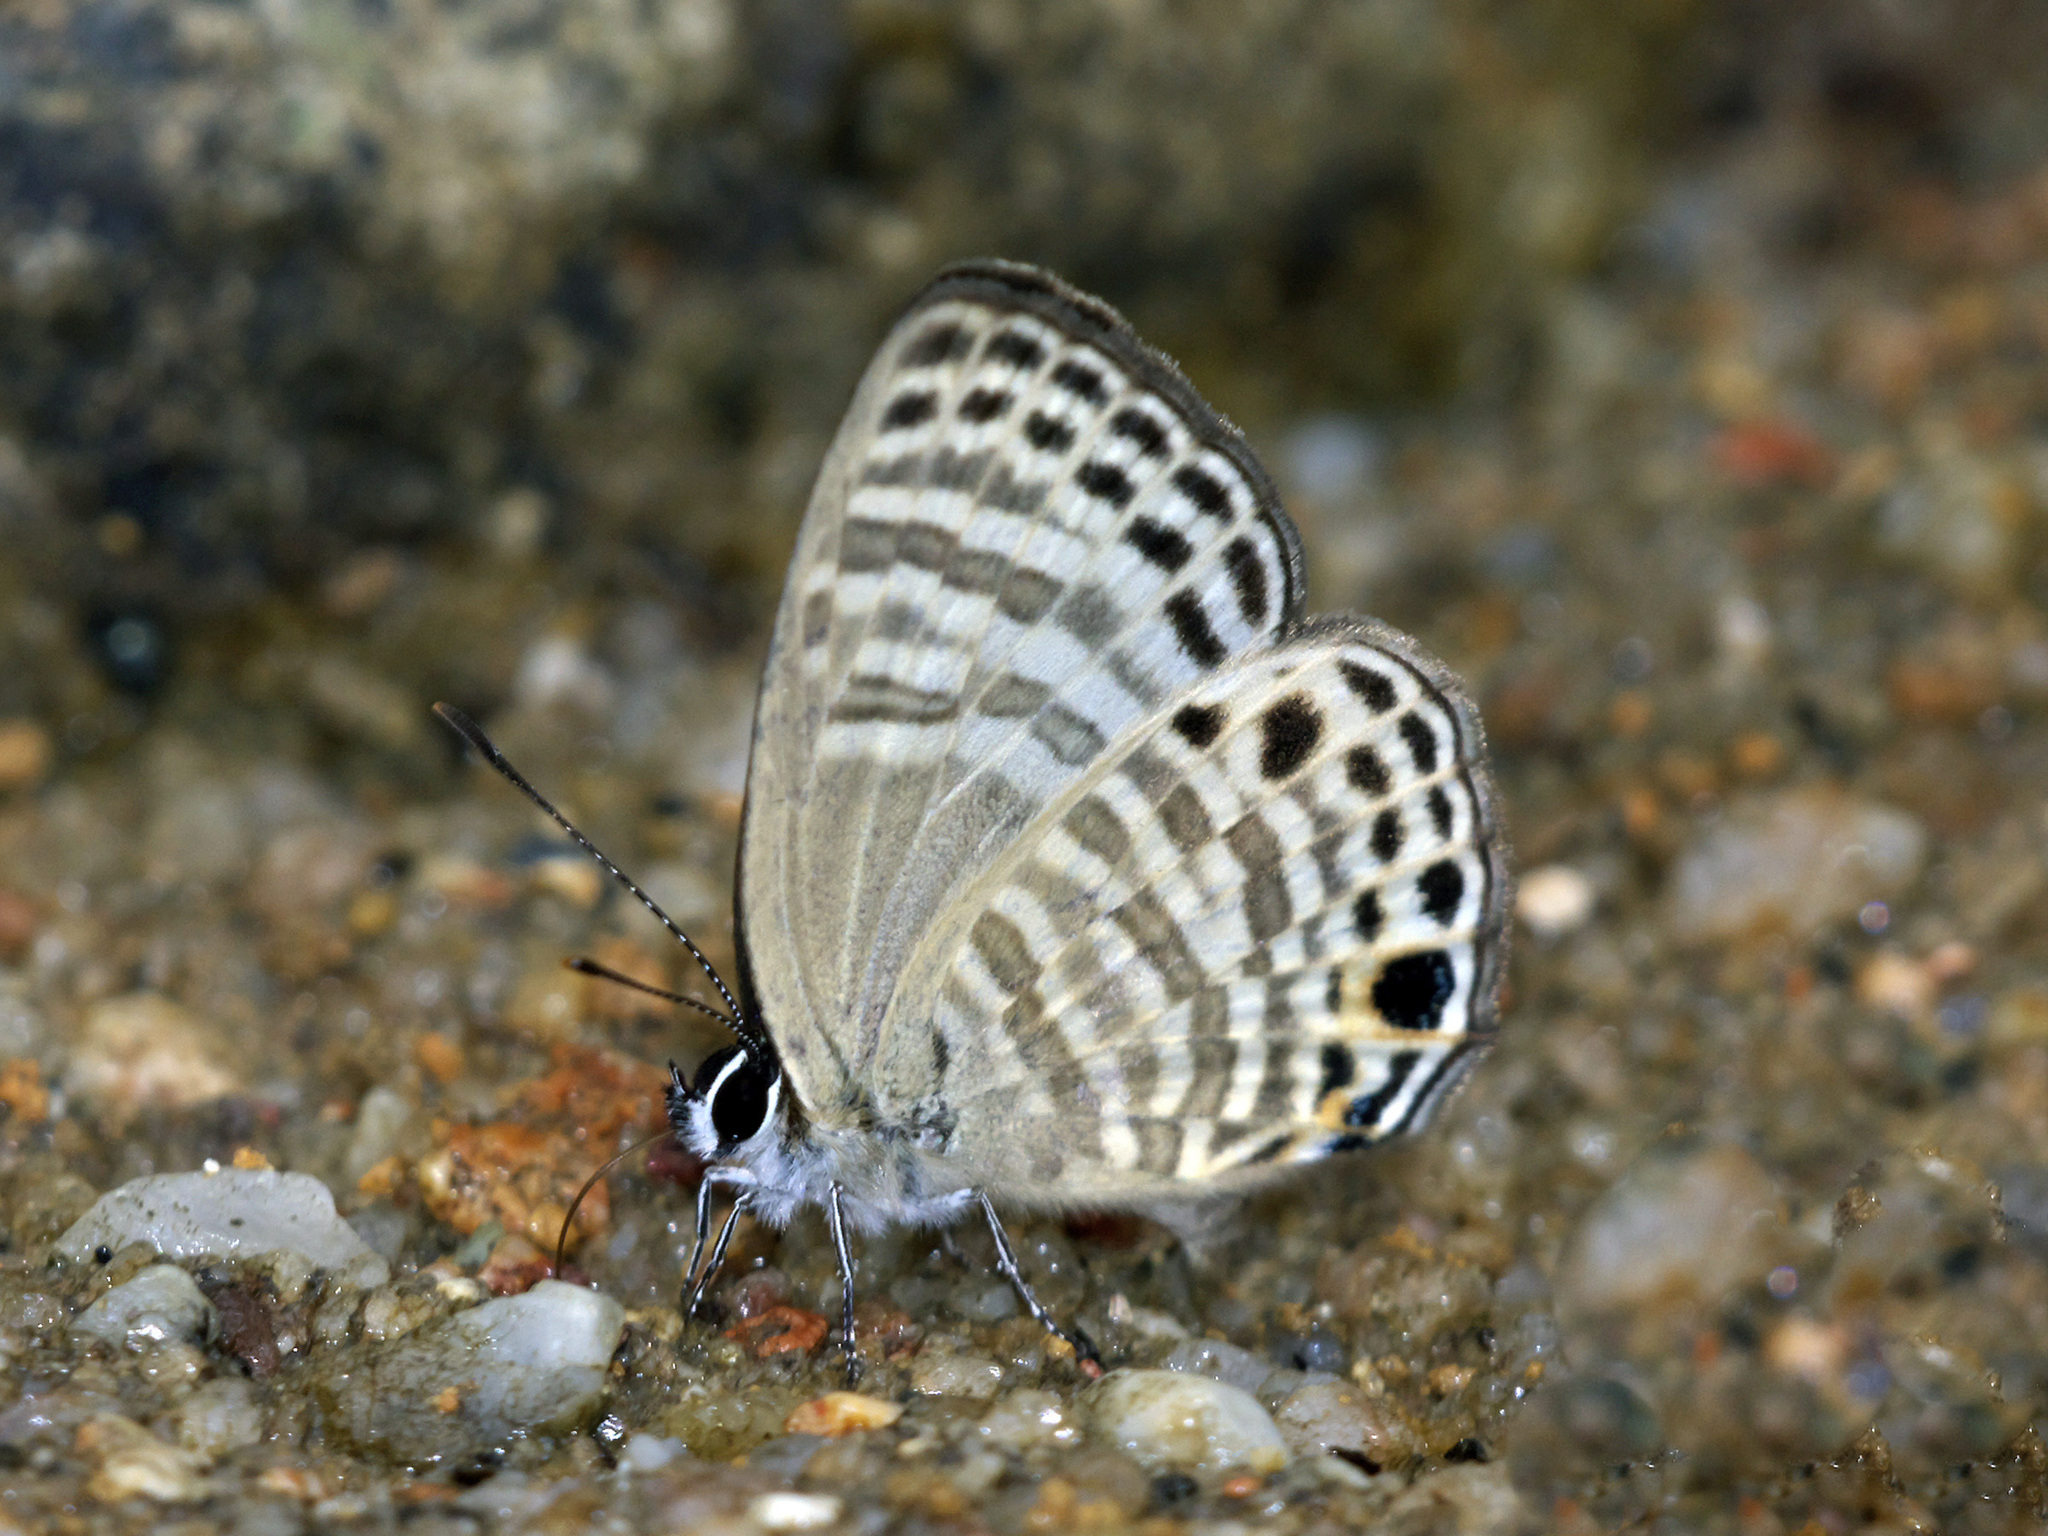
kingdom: Animalia
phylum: Arthropoda
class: Insecta
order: Lepidoptera
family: Lycaenidae
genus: Nacaduba
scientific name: Nacaduba angusta
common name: White four-line blue
